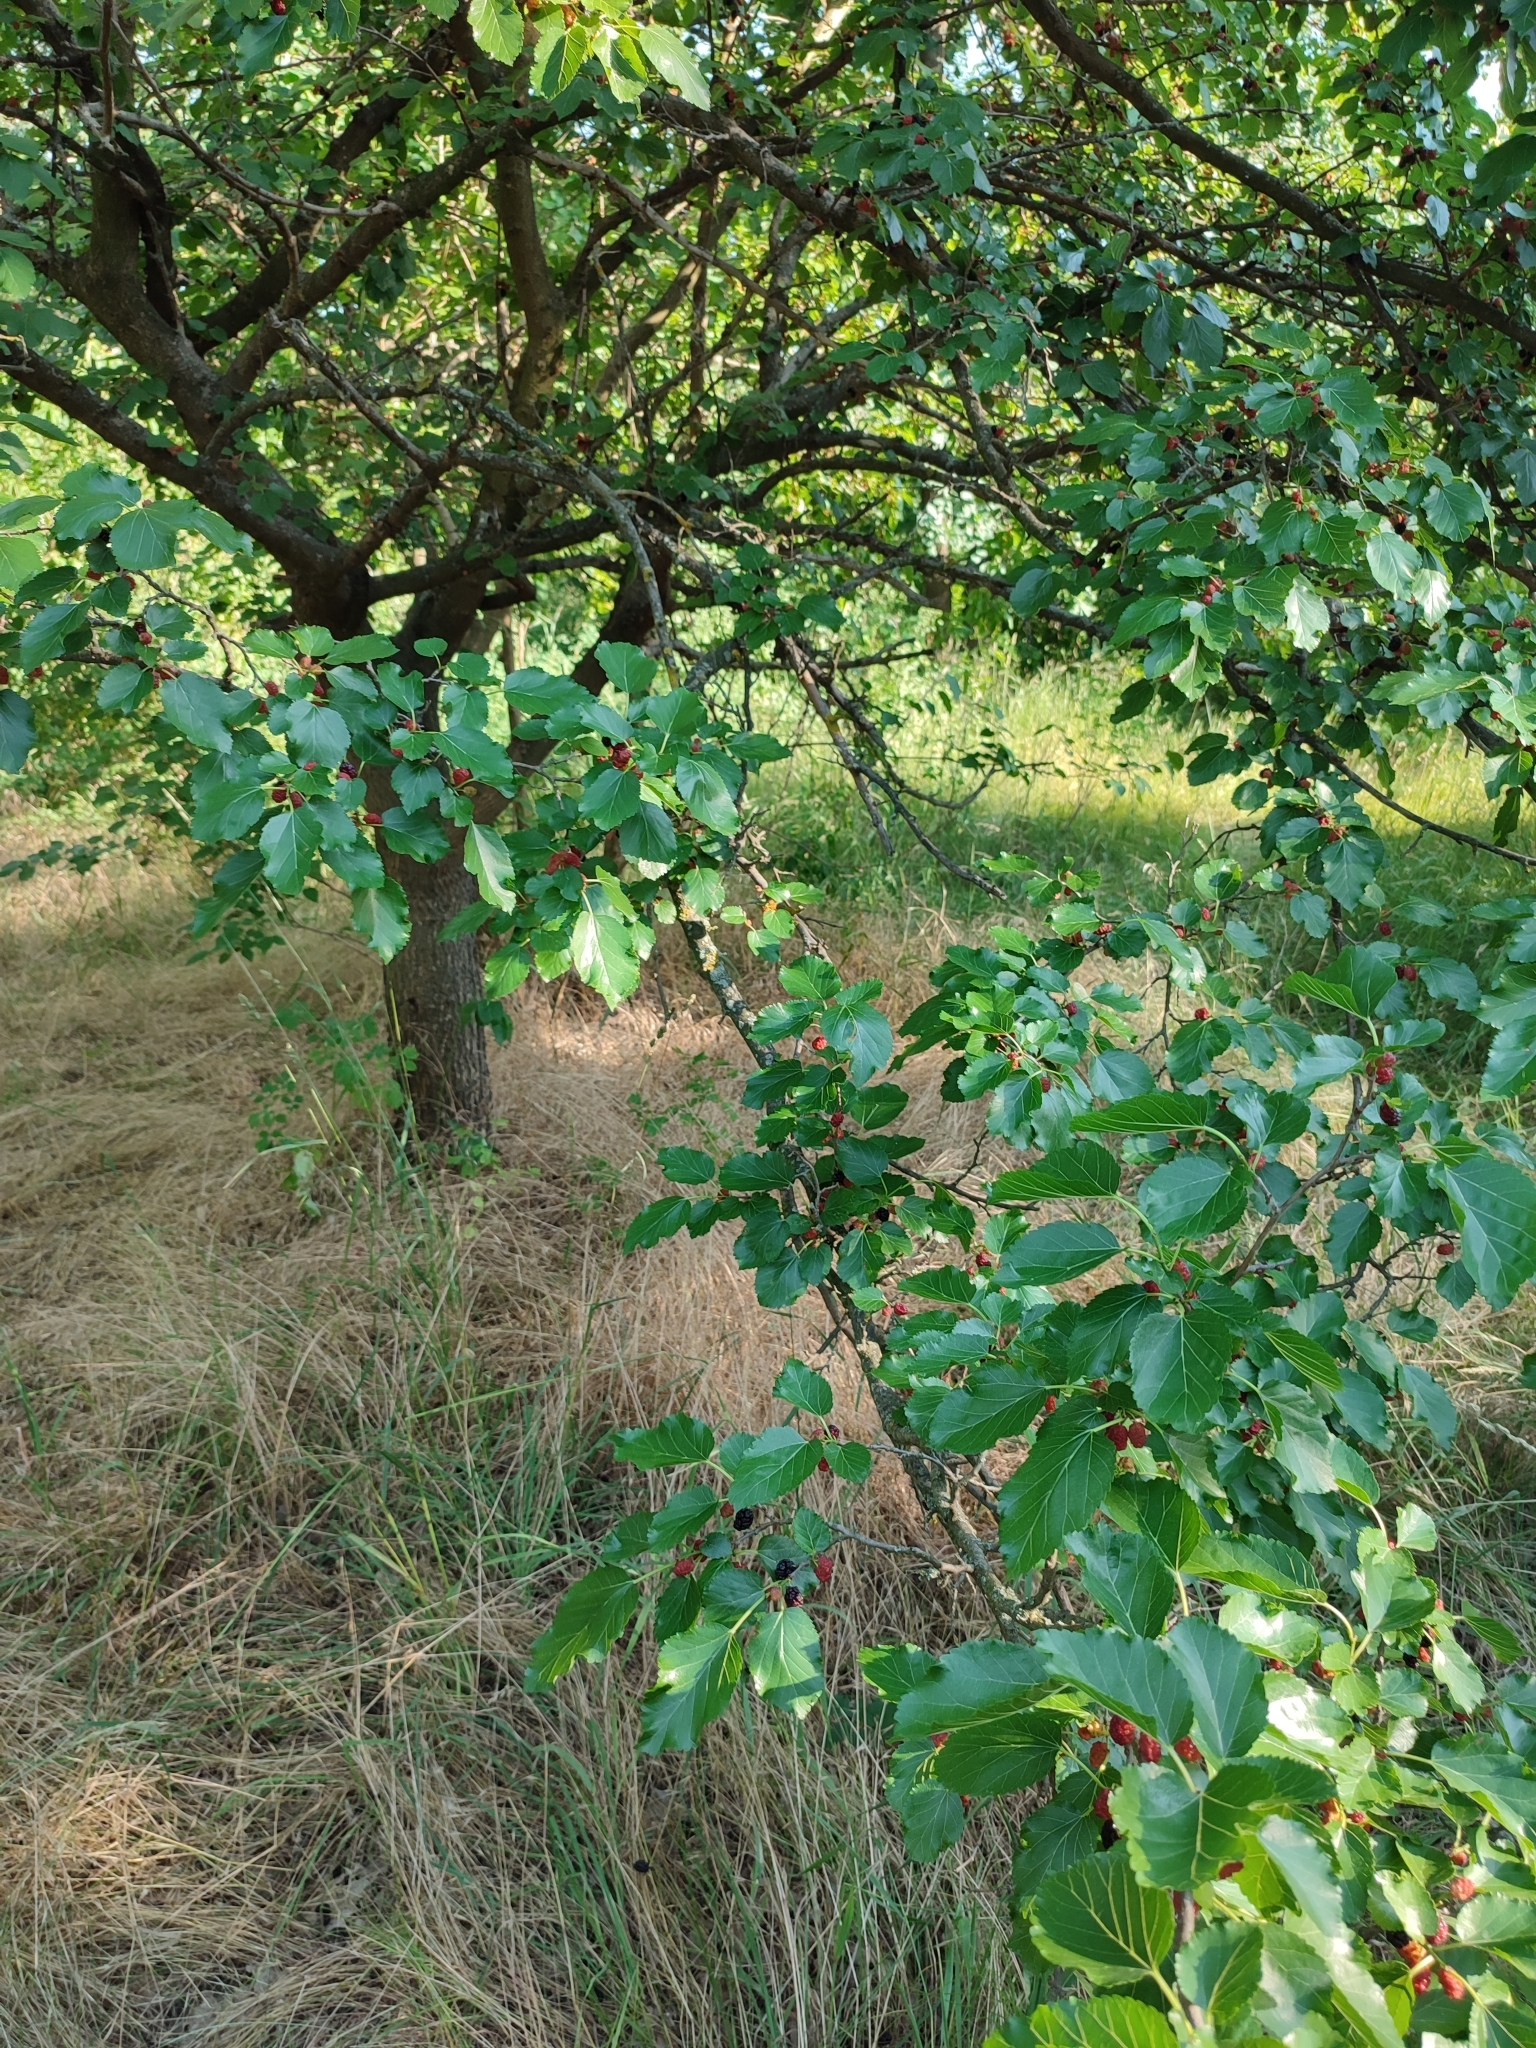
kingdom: Plantae
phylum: Tracheophyta
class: Magnoliopsida
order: Rosales
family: Moraceae
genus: Morus
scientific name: Morus alba
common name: White mulberry
